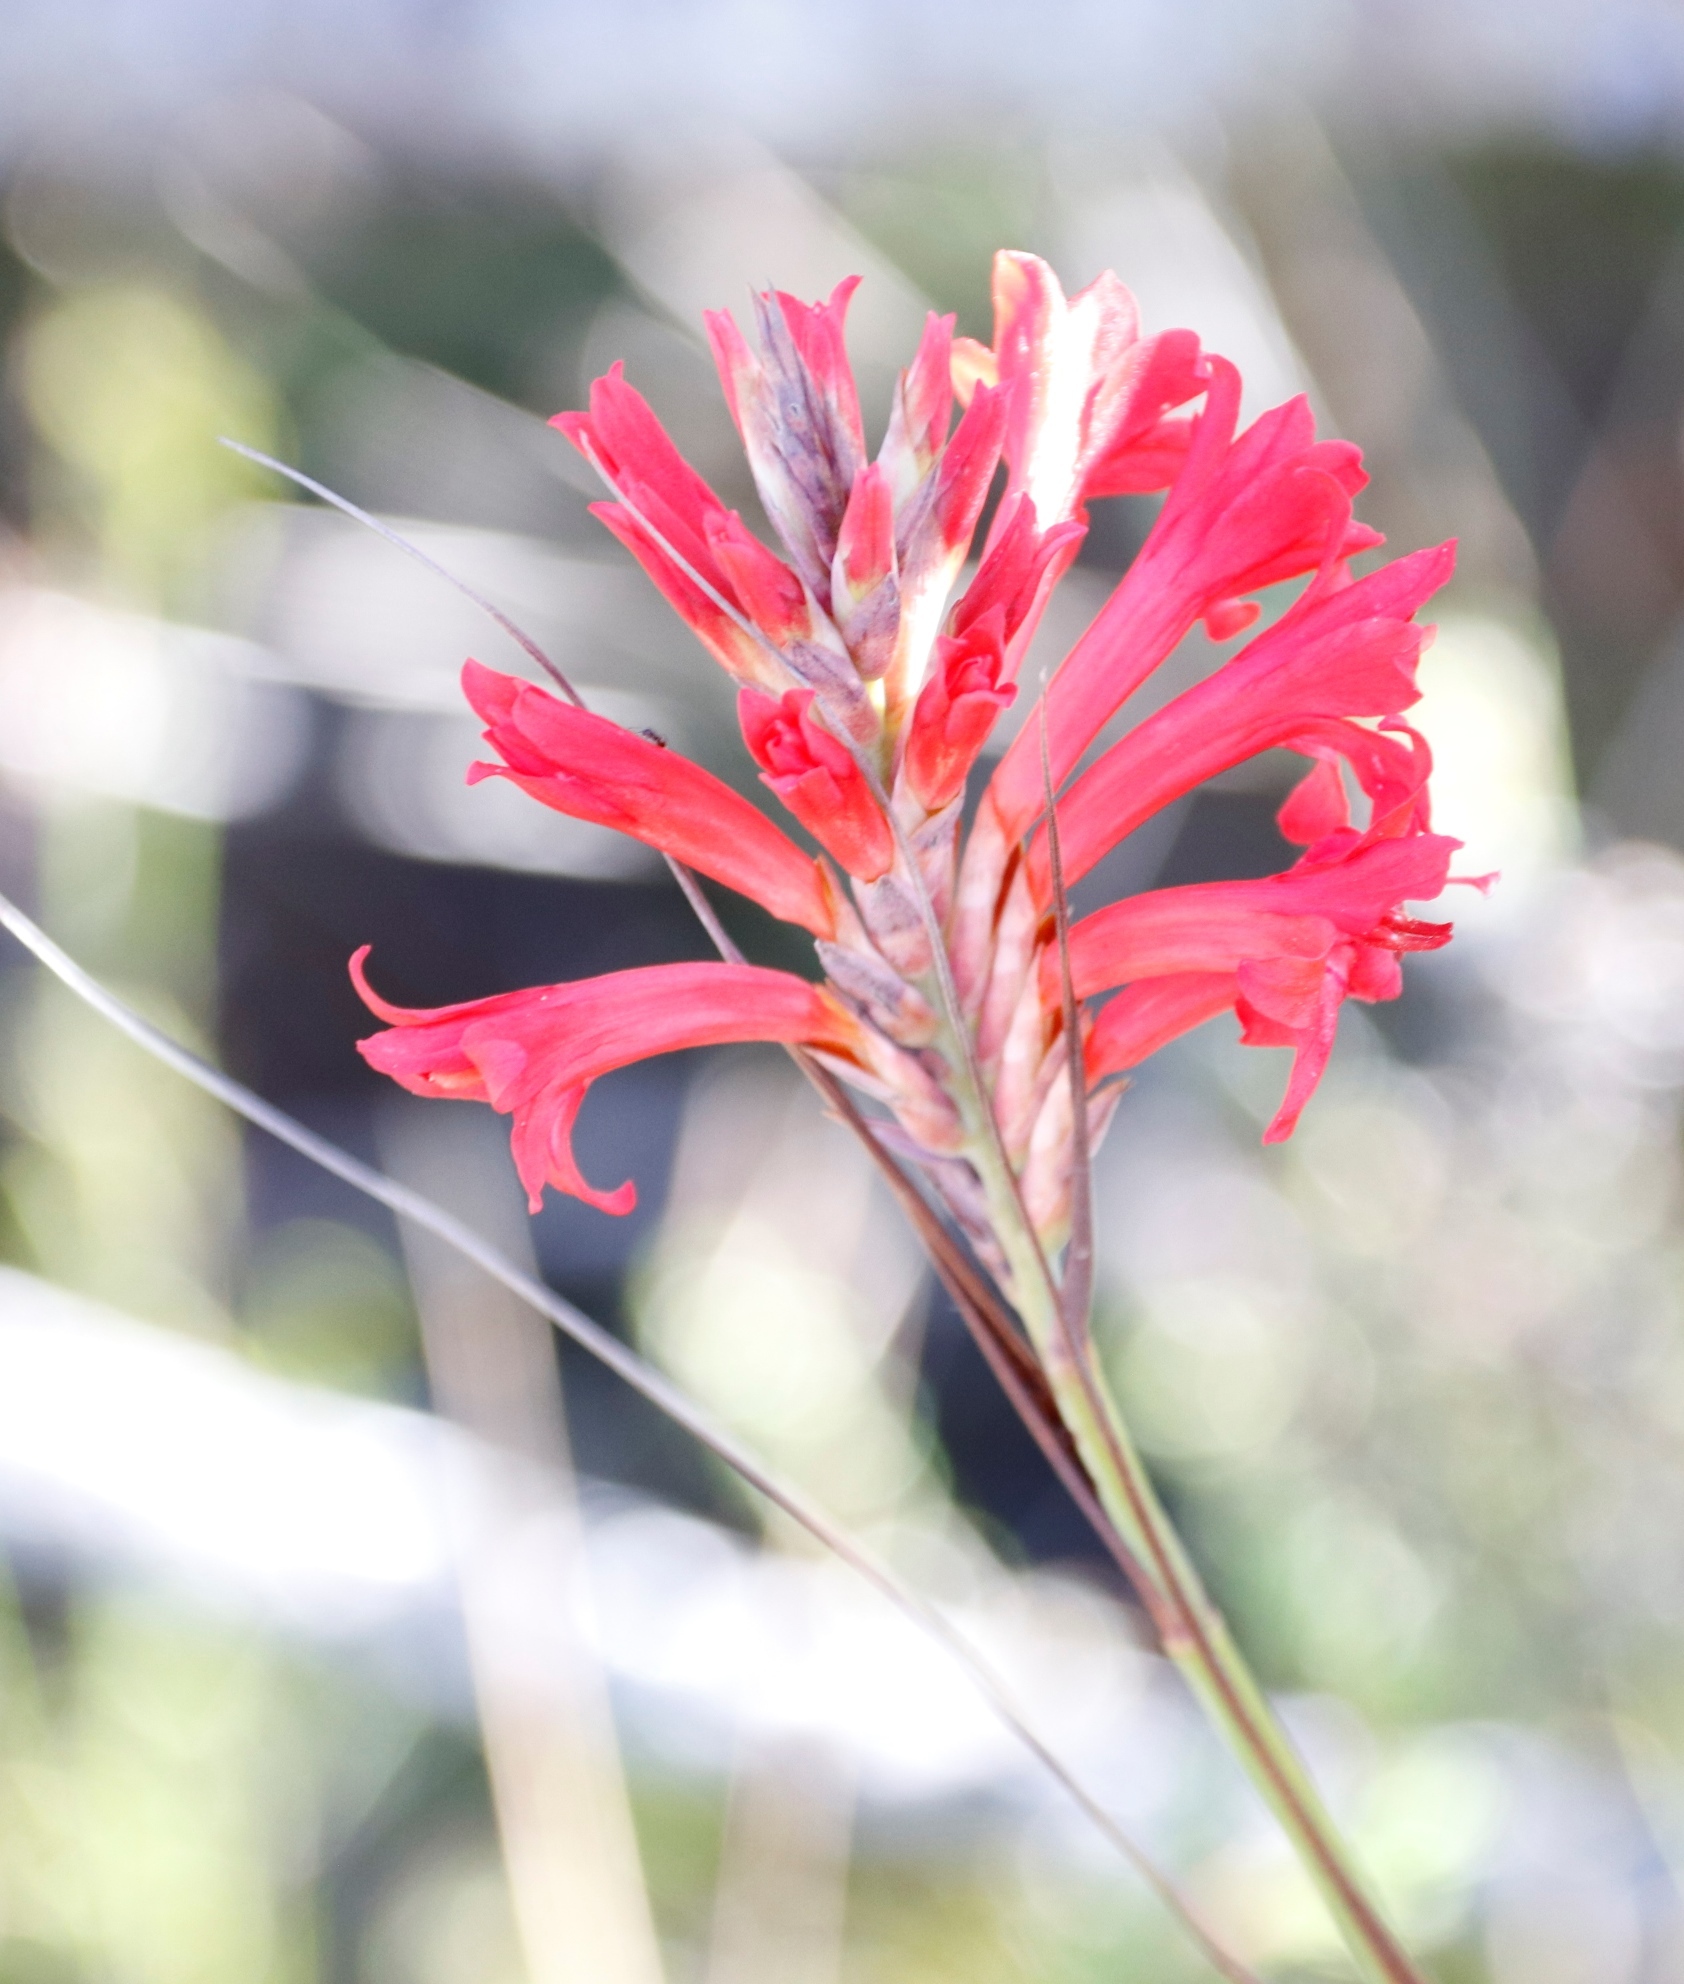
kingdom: Plantae
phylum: Tracheophyta
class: Liliopsida
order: Asparagales
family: Iridaceae
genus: Tritoniopsis
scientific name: Tritoniopsis triticea
